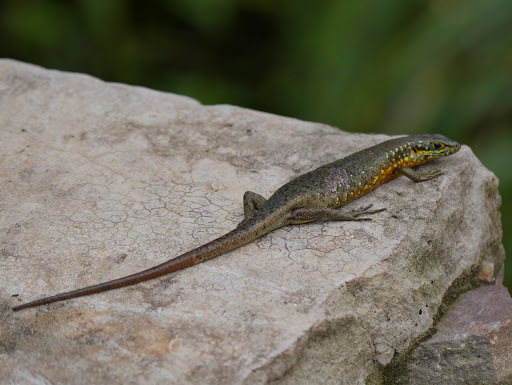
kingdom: Animalia
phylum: Chordata
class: Squamata
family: Scincidae
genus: Trachylepis
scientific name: Trachylepis maculilabris
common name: Speckle-lipped mabuya
